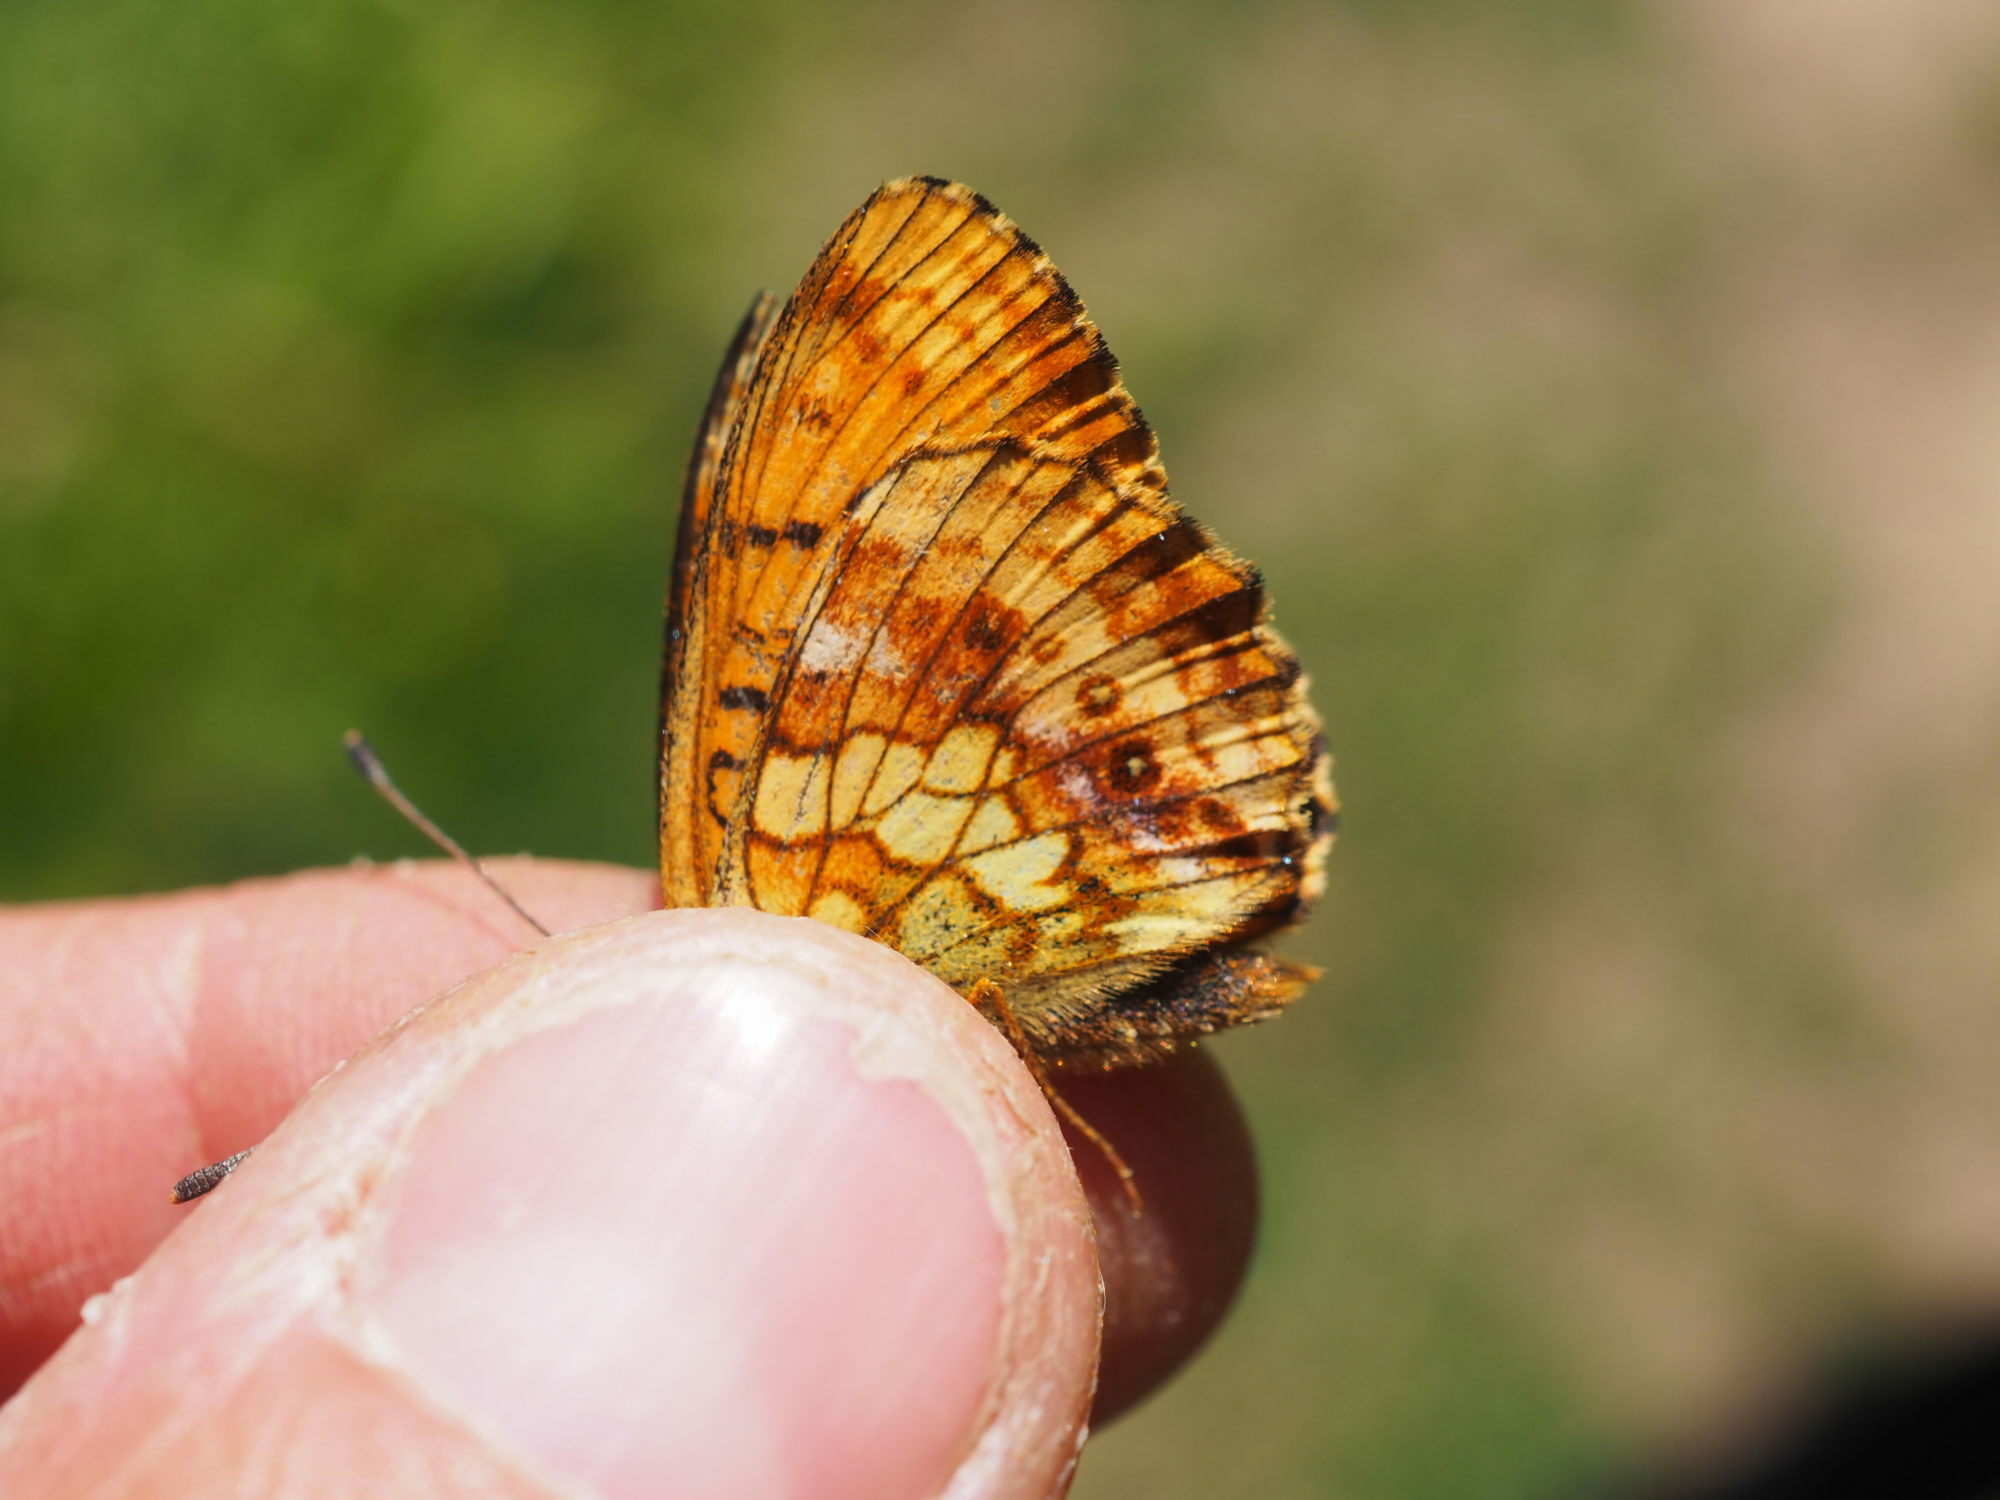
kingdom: Animalia
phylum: Arthropoda
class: Insecta
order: Lepidoptera
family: Nymphalidae
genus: Brenthis
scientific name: Brenthis ino
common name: Lesser marbled fritillary
